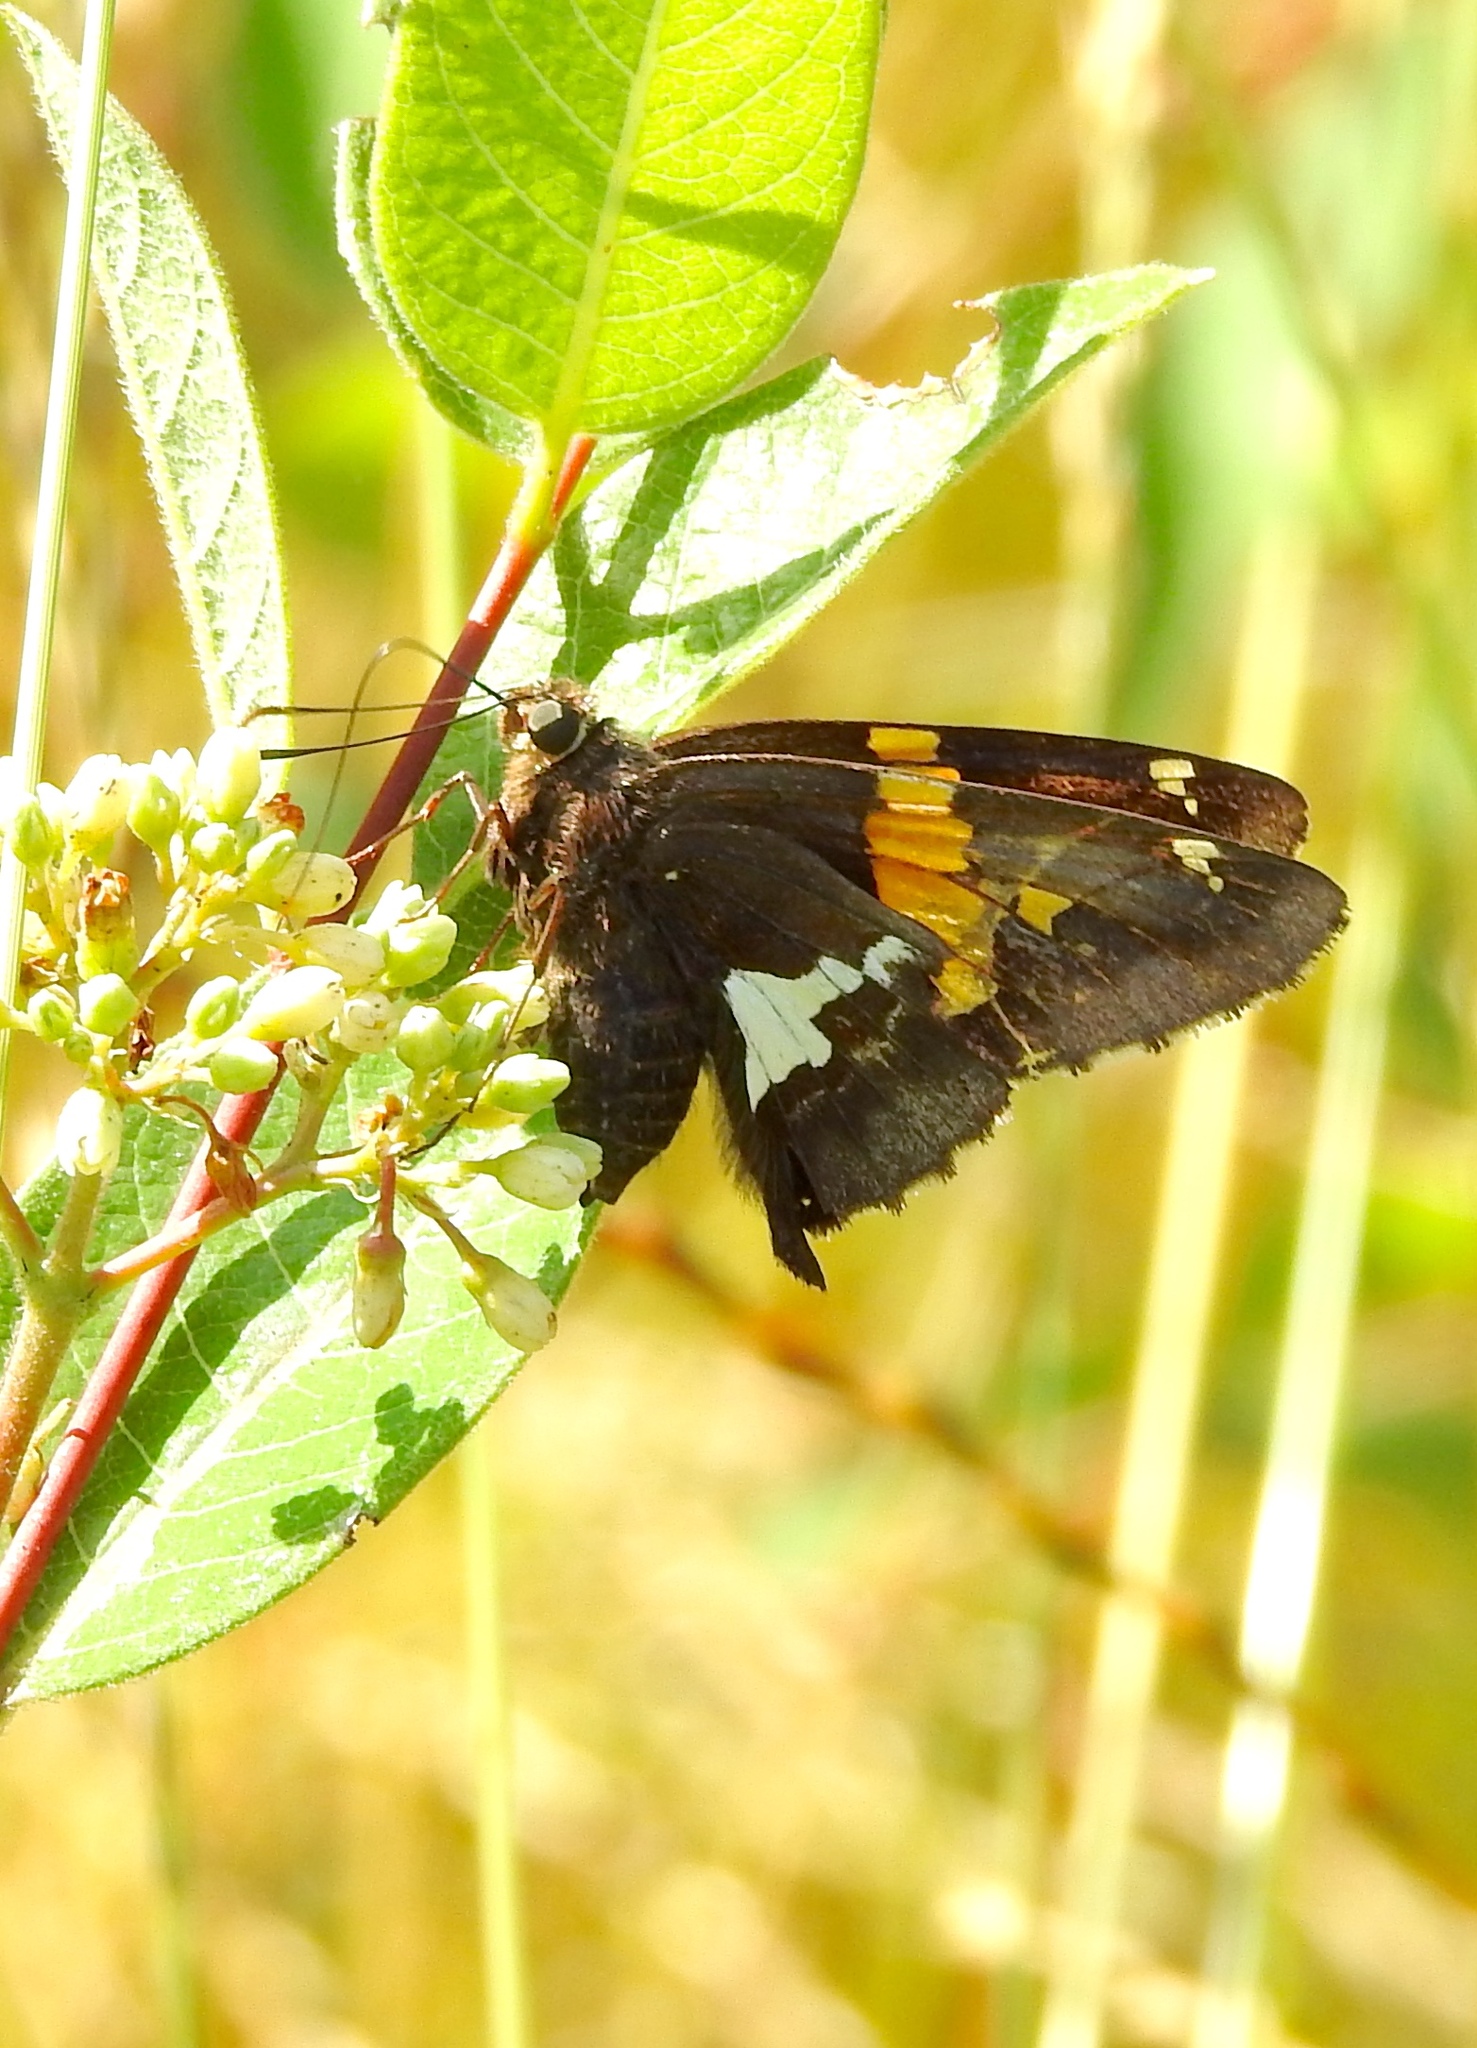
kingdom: Animalia
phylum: Arthropoda
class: Insecta
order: Lepidoptera
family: Hesperiidae
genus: Epargyreus
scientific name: Epargyreus clarus
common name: Silver-spotted skipper
